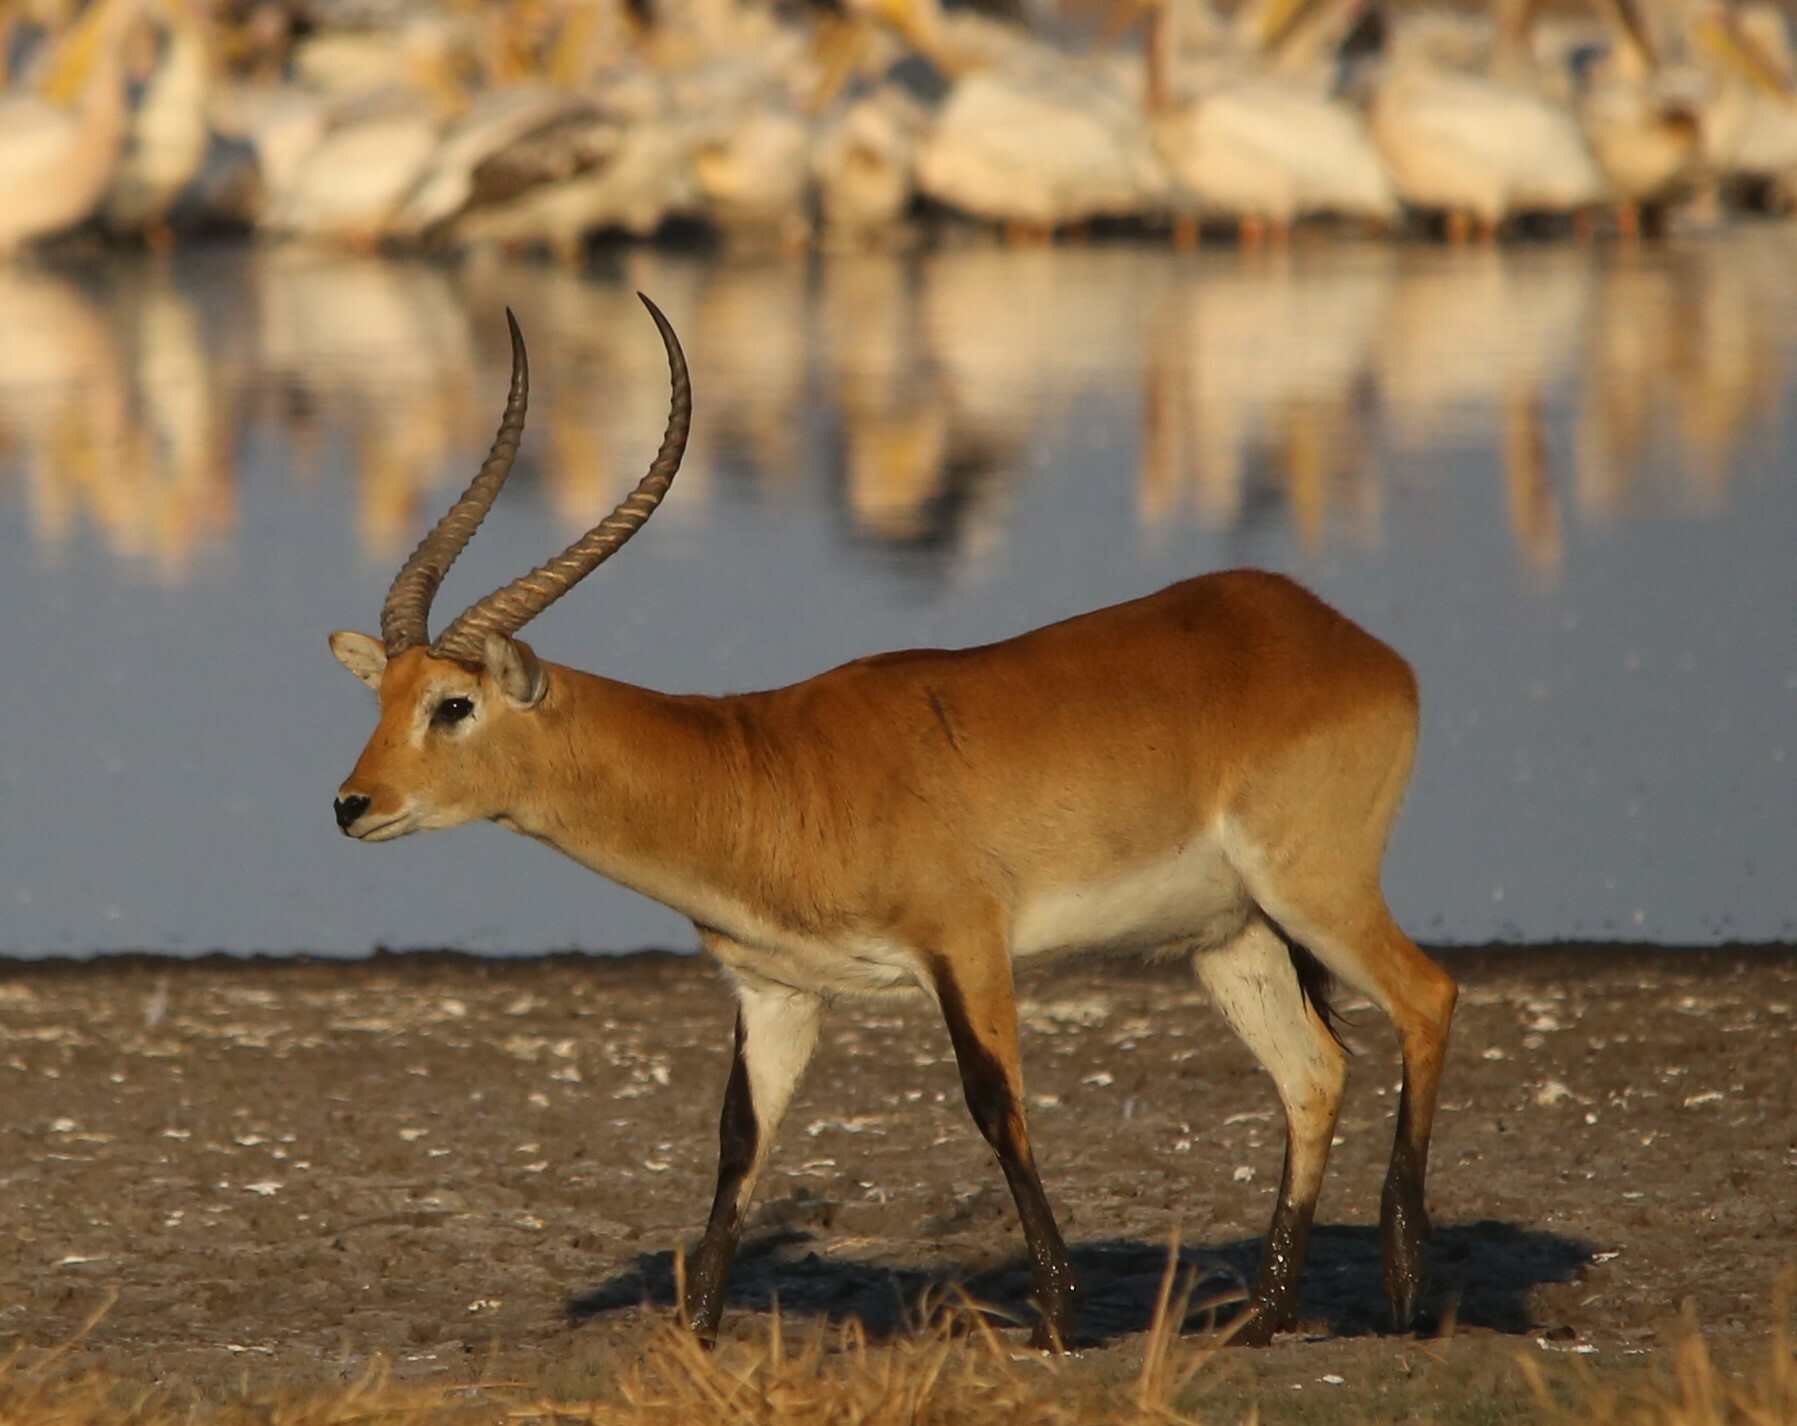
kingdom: Animalia
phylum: Chordata
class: Mammalia
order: Artiodactyla
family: Bovidae
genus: Kobus
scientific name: Kobus leche
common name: Lechwe
